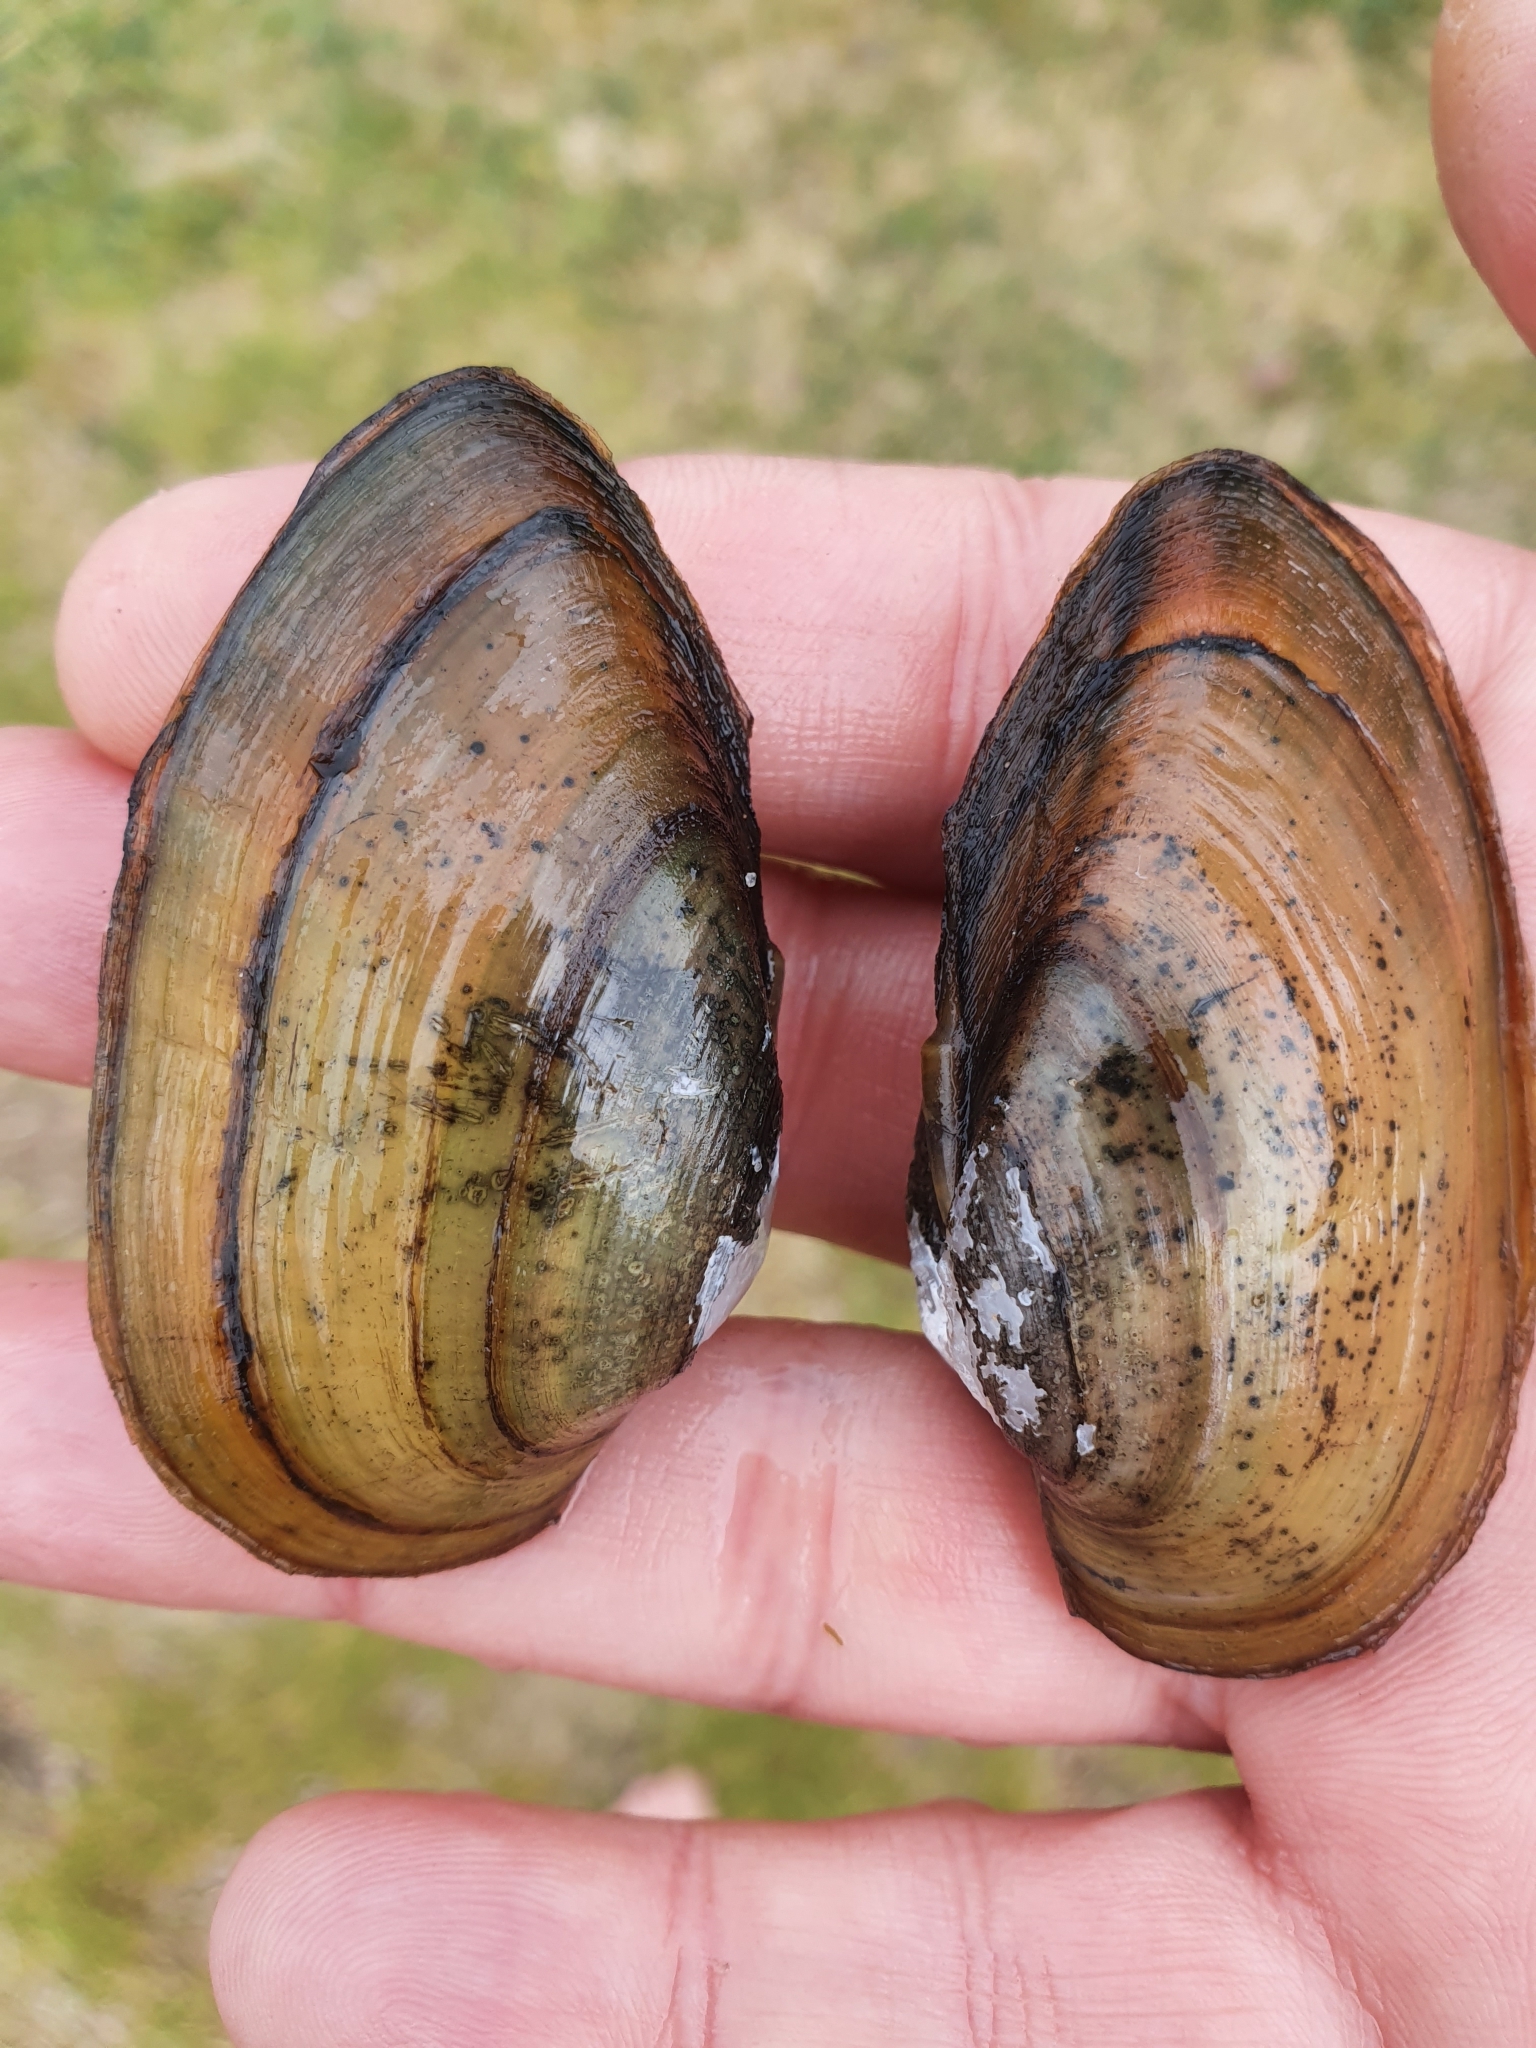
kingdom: Animalia
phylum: Mollusca
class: Bivalvia
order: Unionida
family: Unionidae
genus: Unio
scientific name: Unio tumidus
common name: Swollen river mussel
